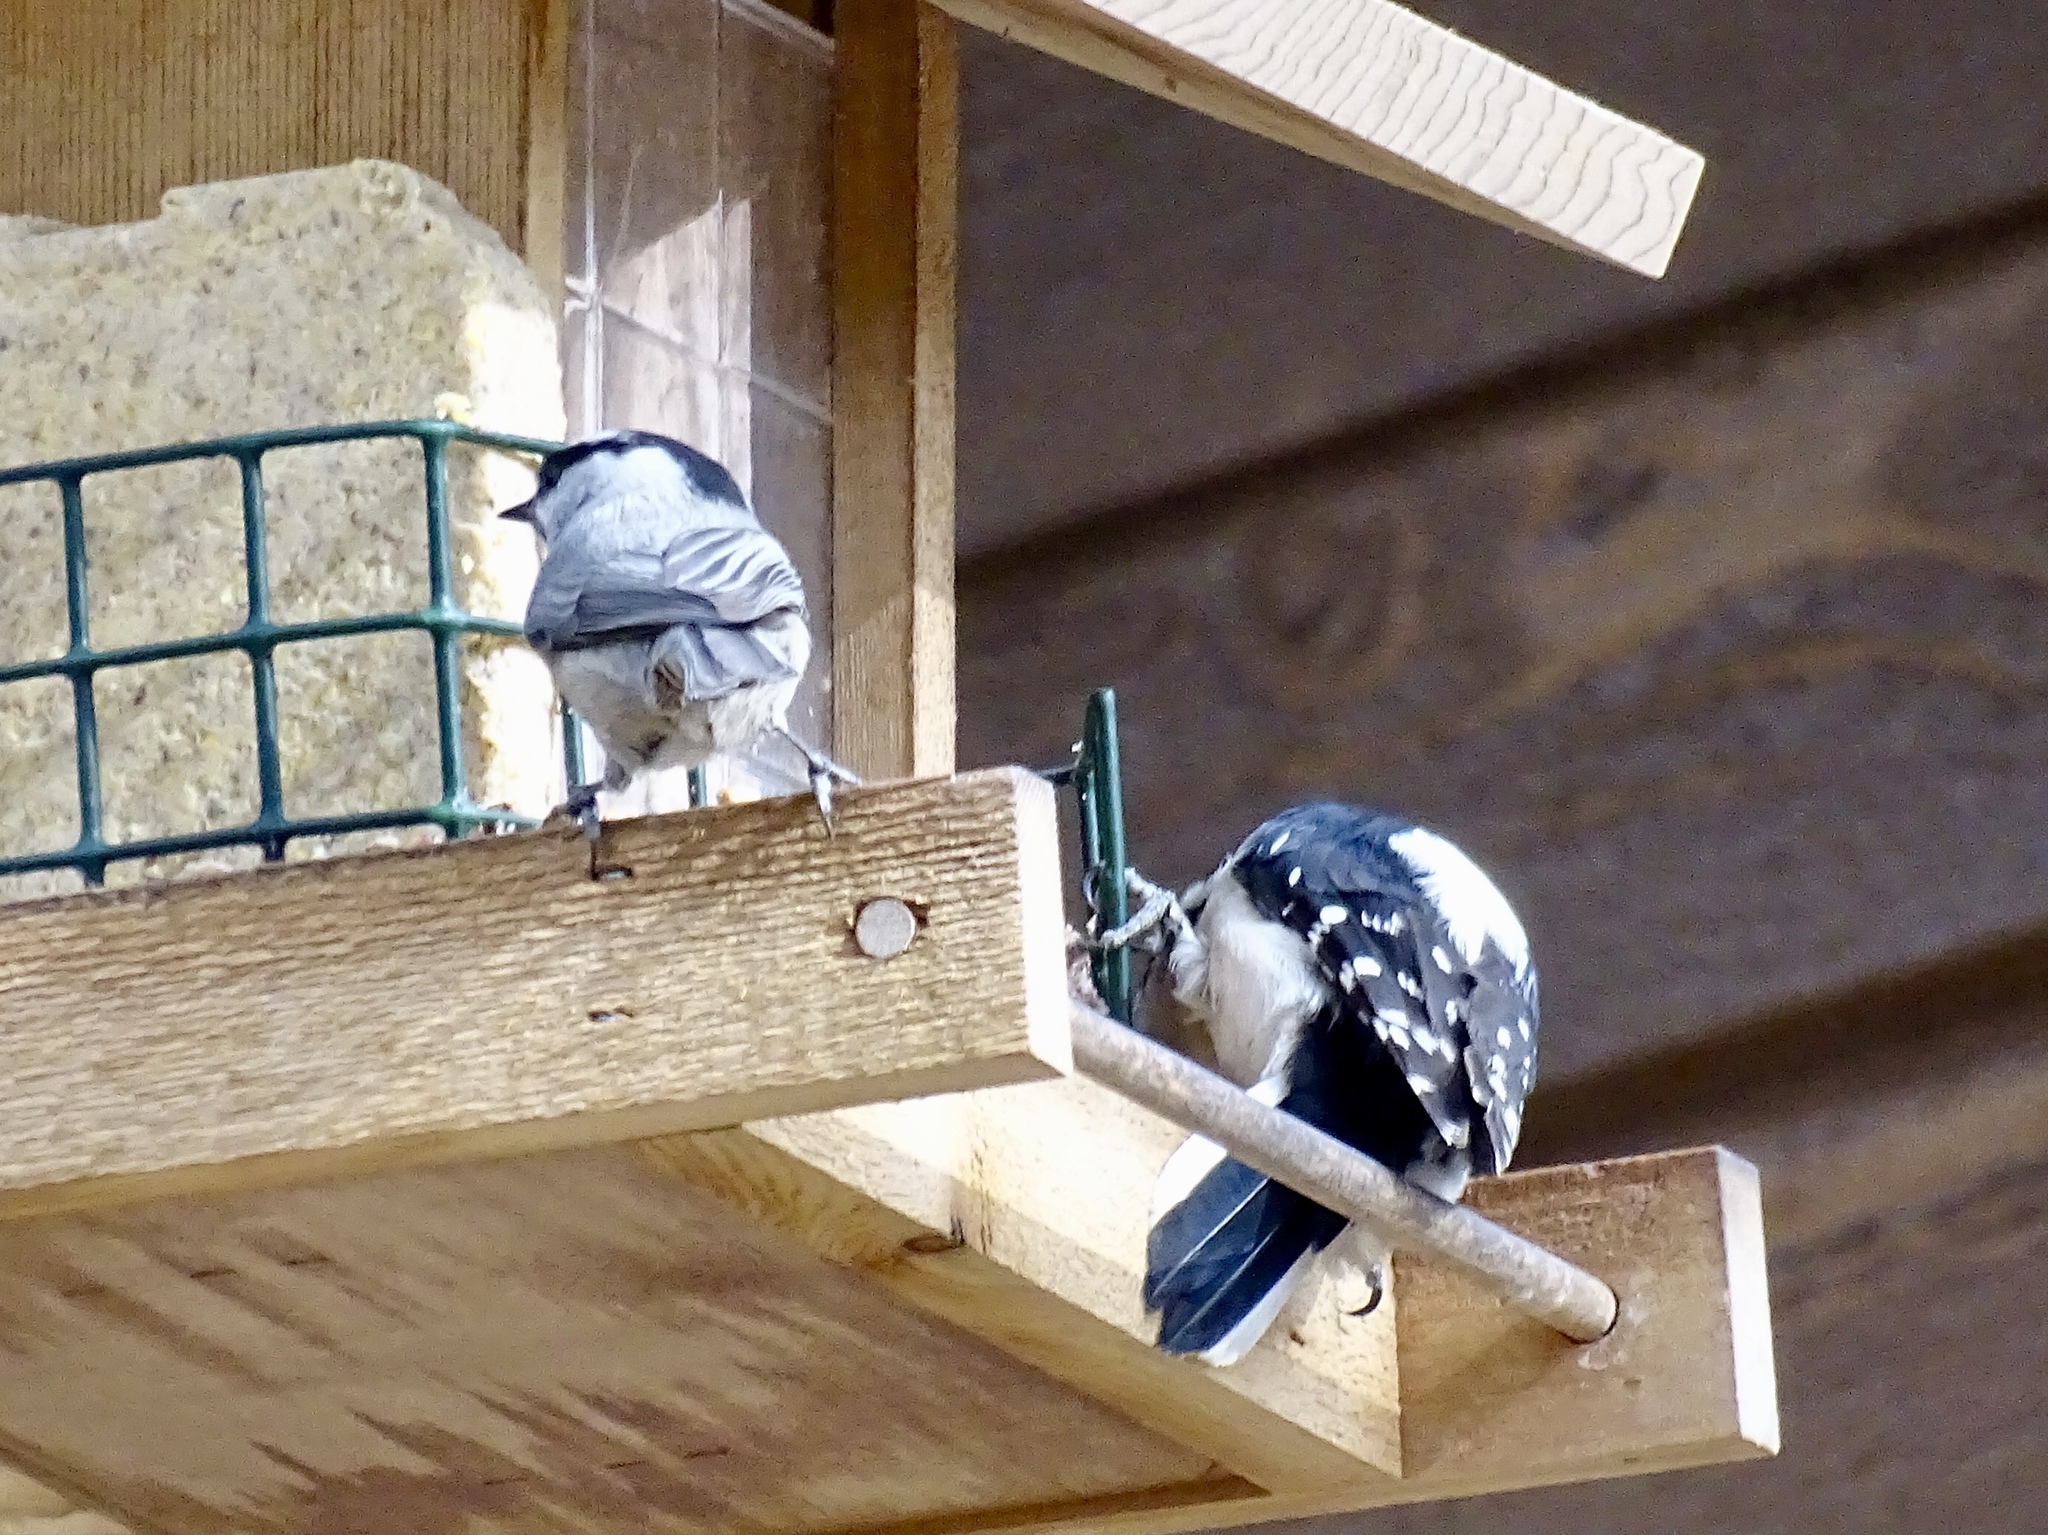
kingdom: Animalia
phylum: Chordata
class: Aves
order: Passeriformes
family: Paridae
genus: Poecile
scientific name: Poecile gambeli
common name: Mountain chickadee
